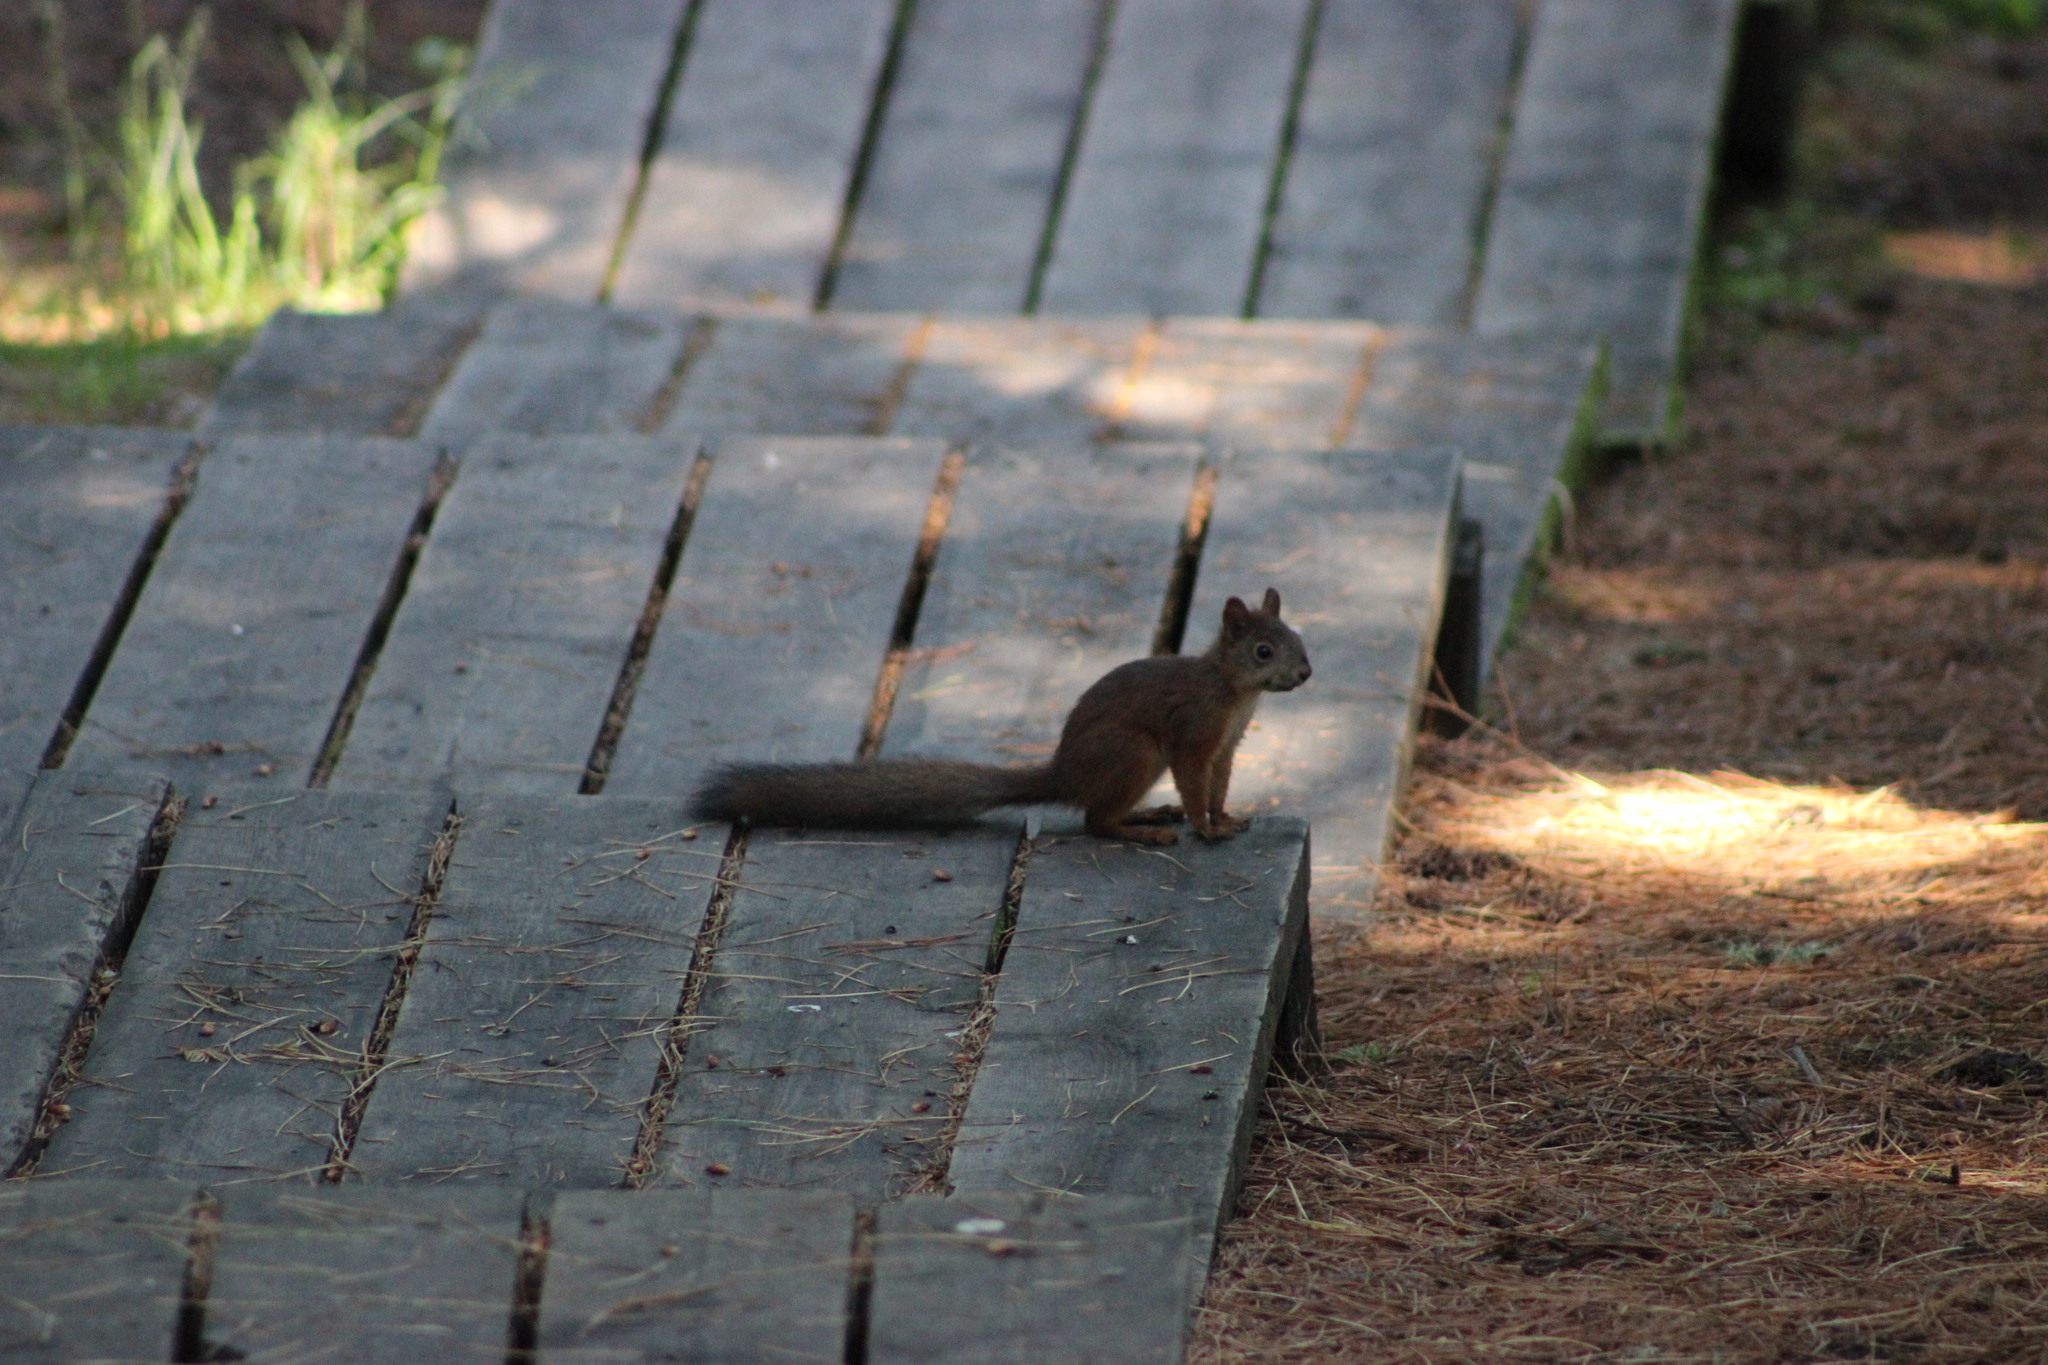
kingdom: Animalia
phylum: Chordata
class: Mammalia
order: Rodentia
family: Sciuridae
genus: Sciurus
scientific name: Sciurus vulgaris
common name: Eurasian red squirrel
